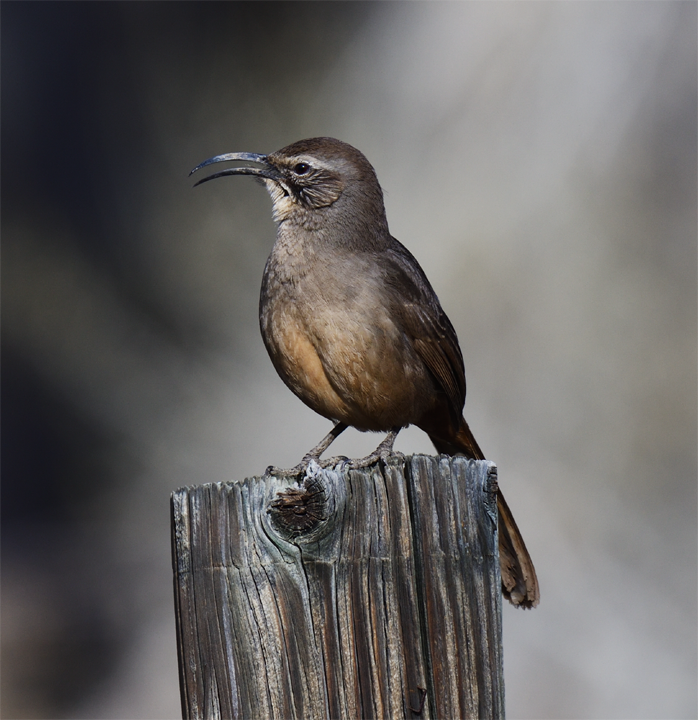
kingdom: Animalia
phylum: Chordata
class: Aves
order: Passeriformes
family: Mimidae
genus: Toxostoma
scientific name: Toxostoma redivivum
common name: California thrasher
